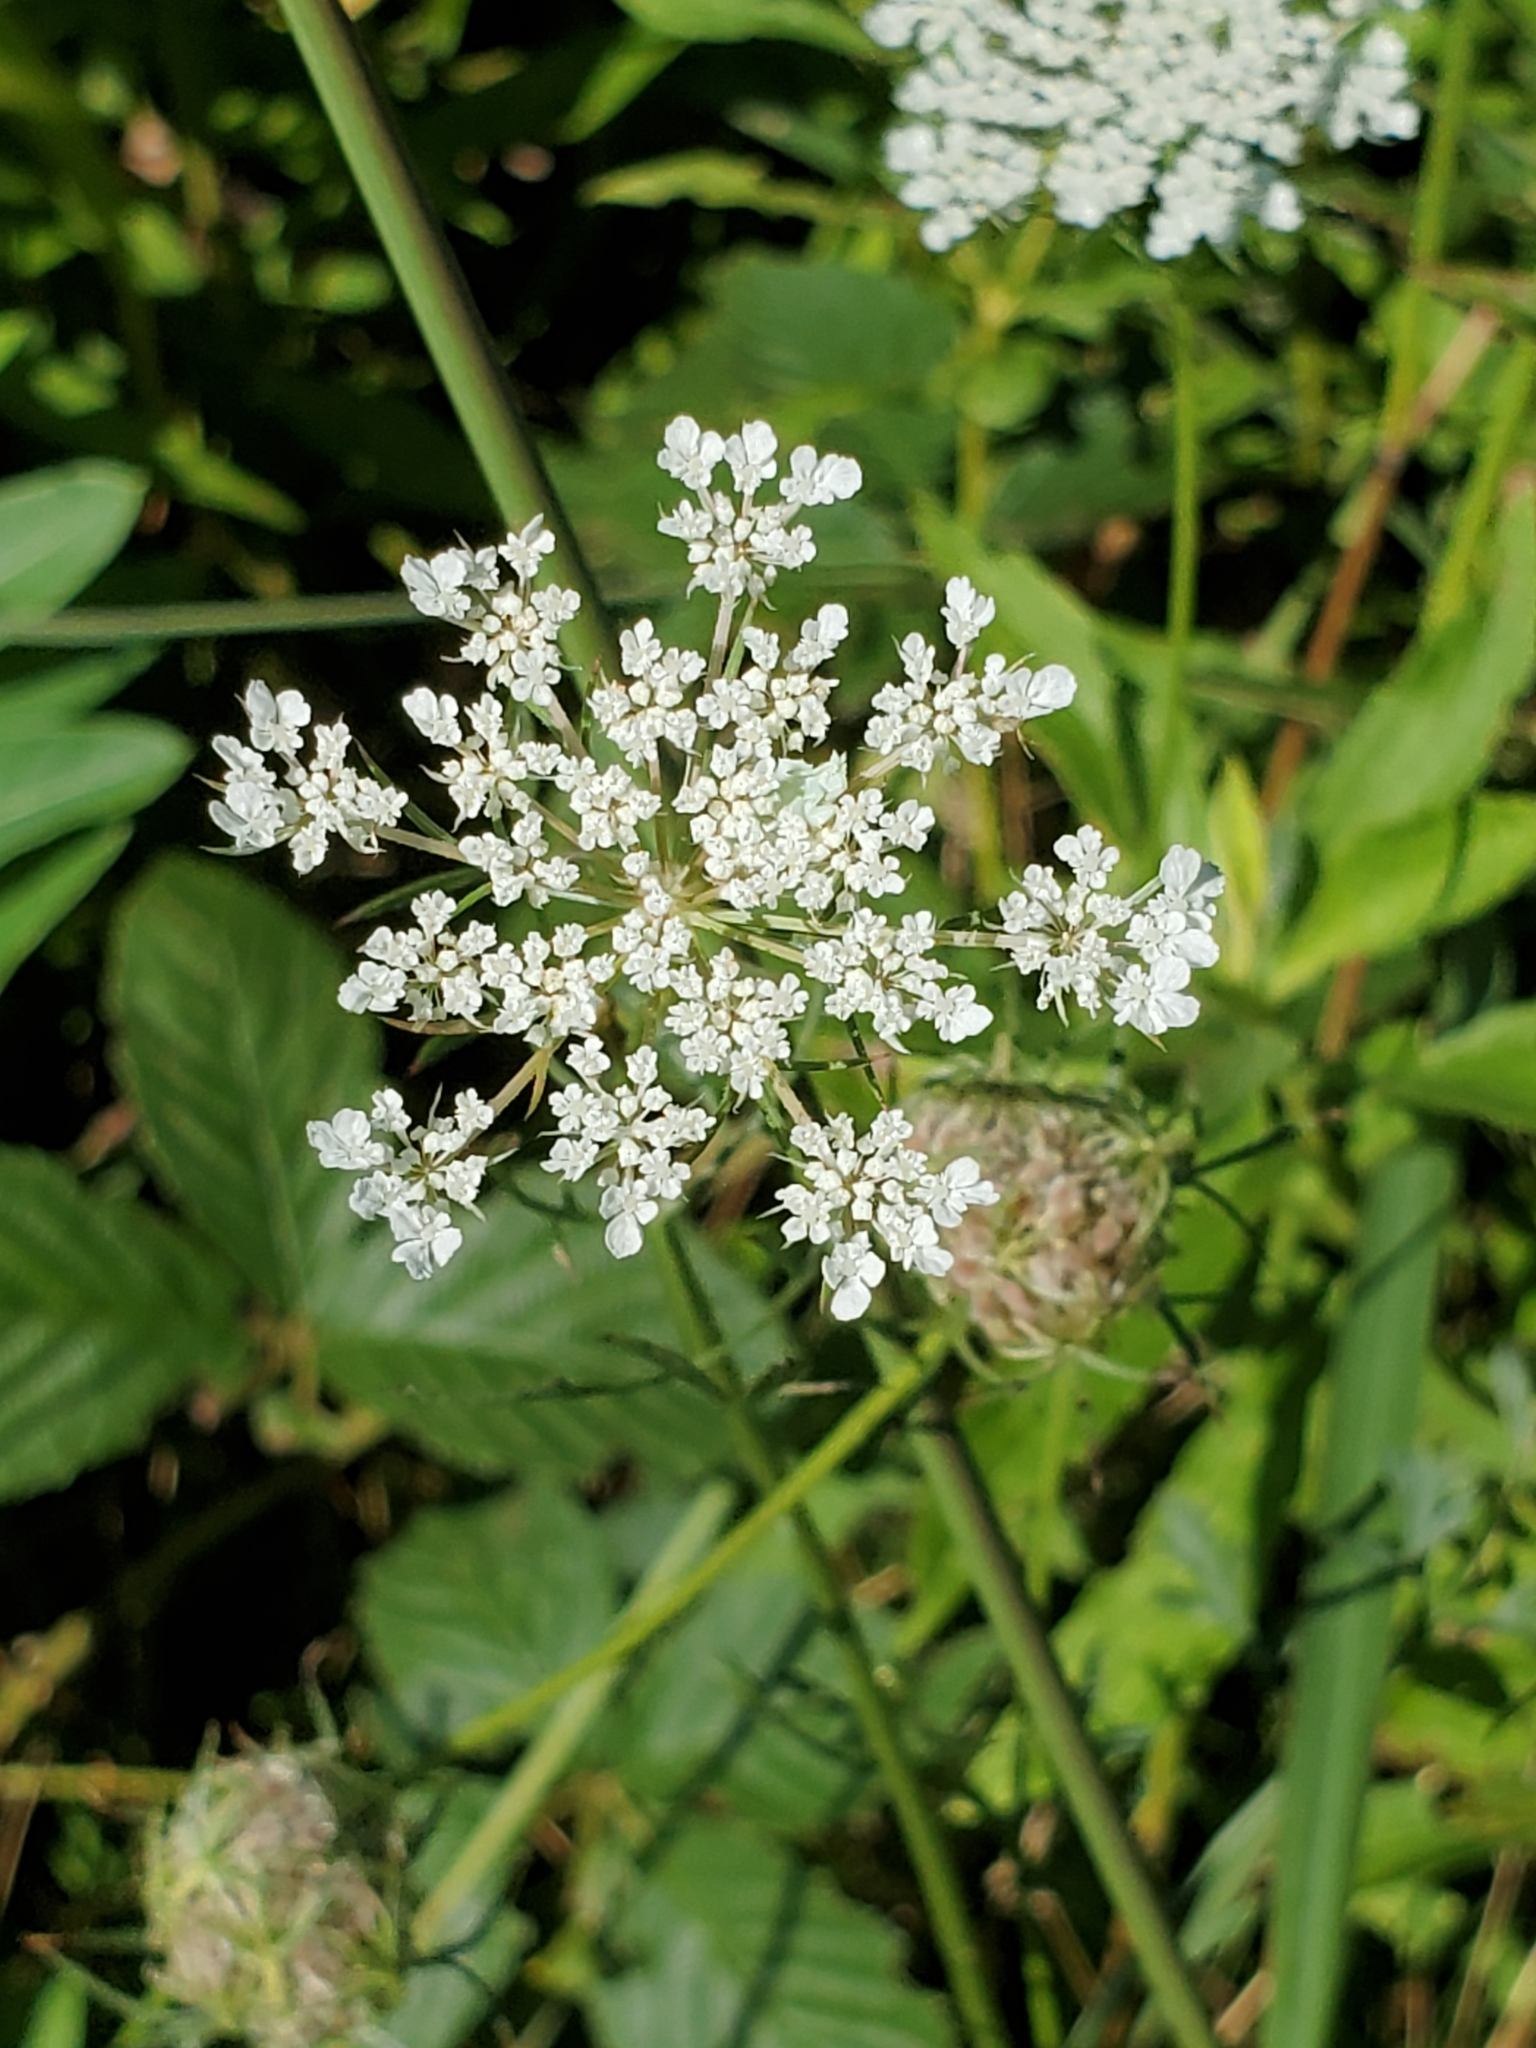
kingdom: Plantae
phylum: Tracheophyta
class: Magnoliopsida
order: Apiales
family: Apiaceae
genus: Daucus
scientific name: Daucus carota
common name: Wild carrot
